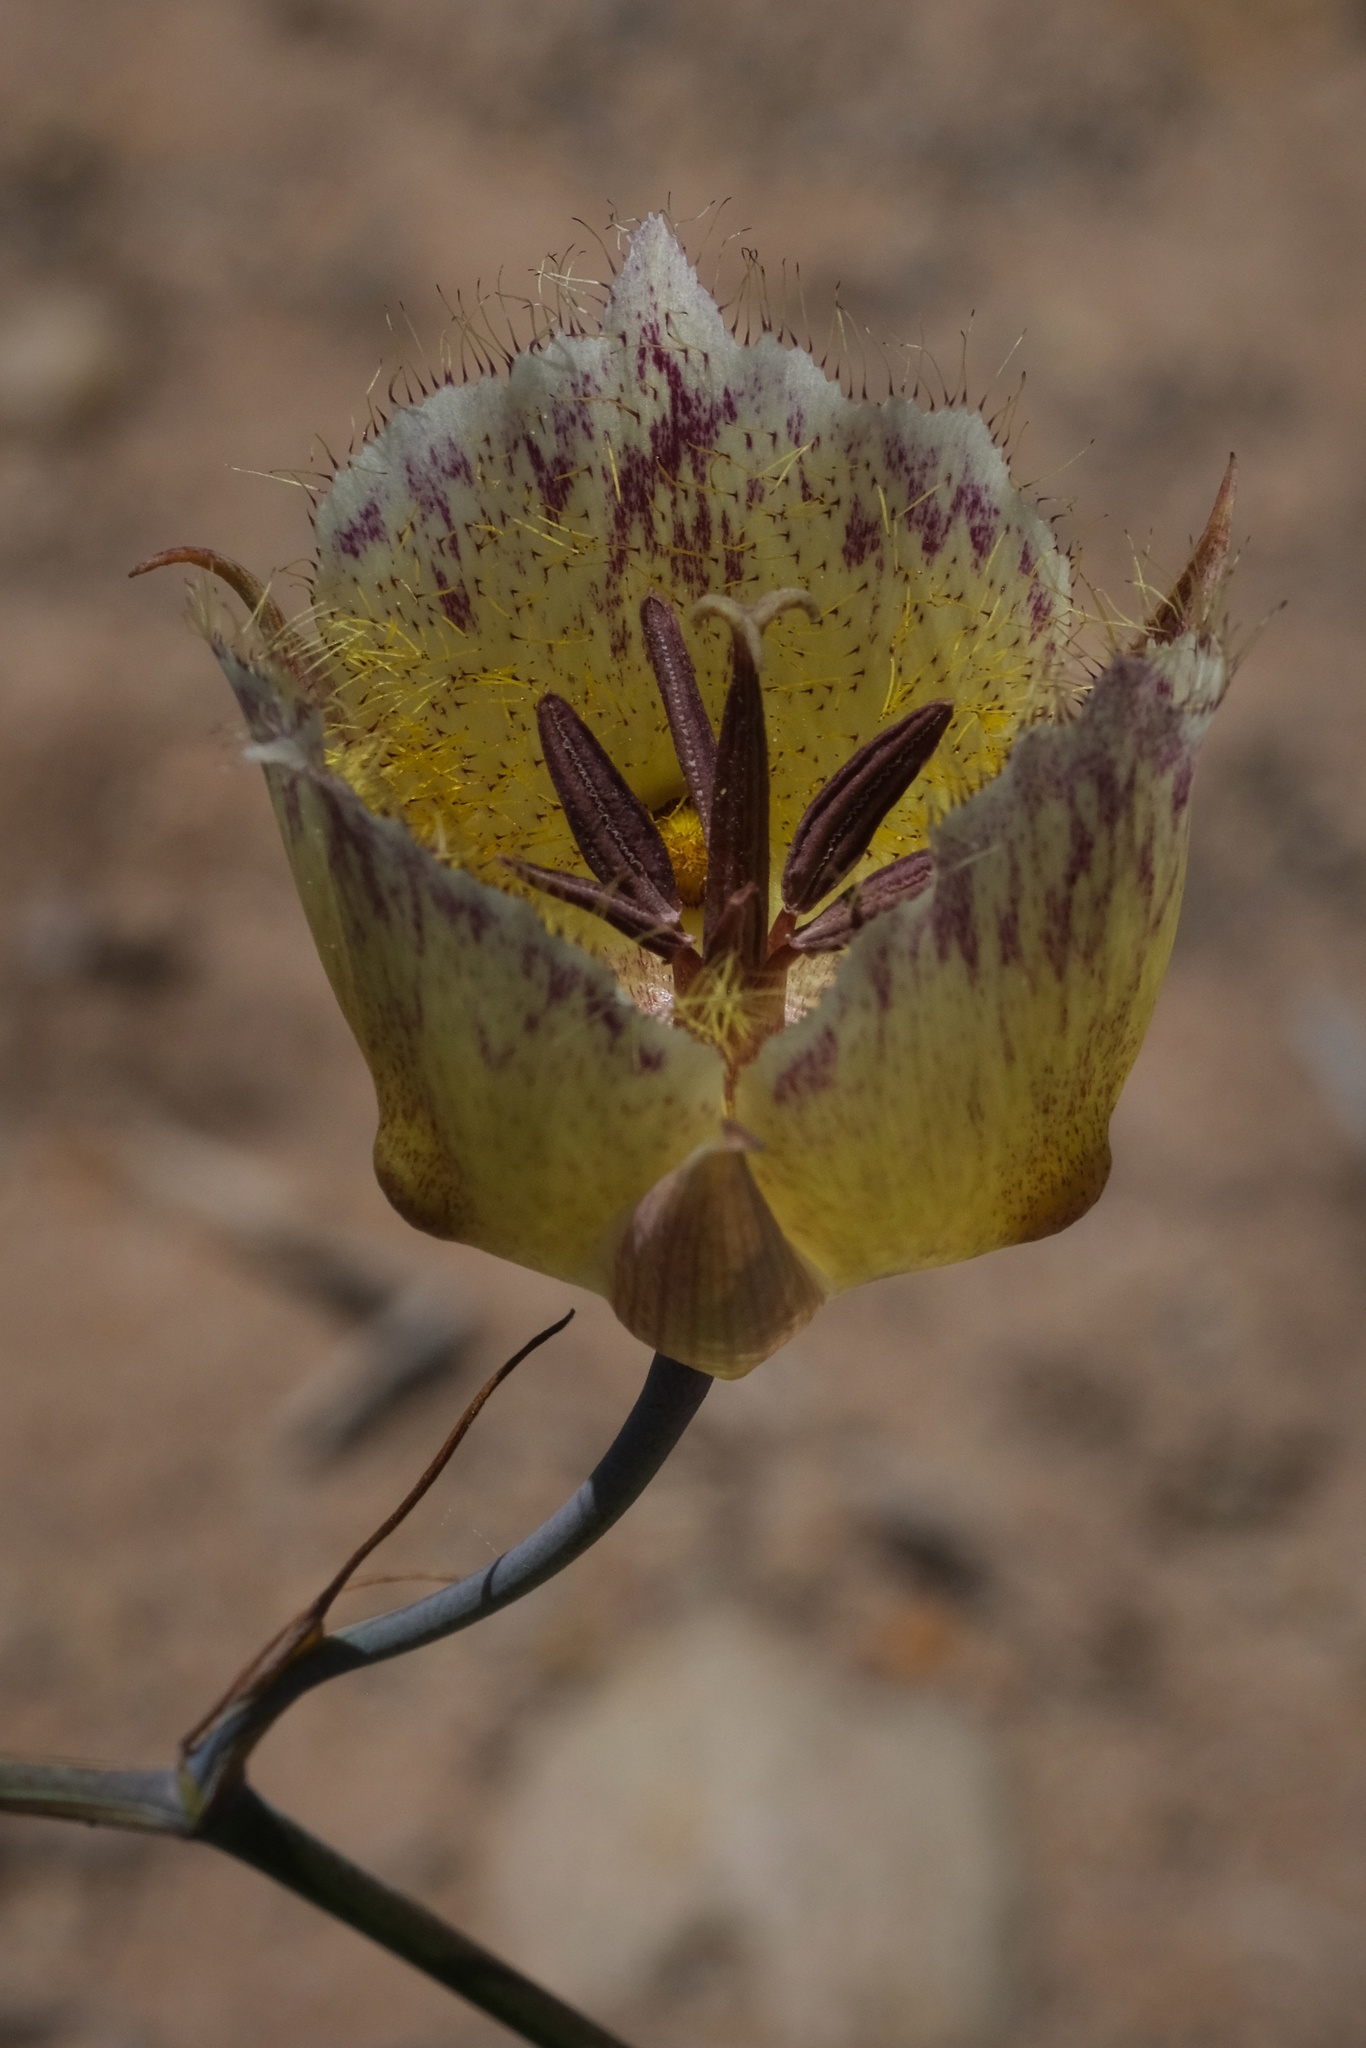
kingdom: Plantae
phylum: Tracheophyta
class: Liliopsida
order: Liliales
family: Liliaceae
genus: Calochortus
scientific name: Calochortus weedii
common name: Weed's mariposa-lily
